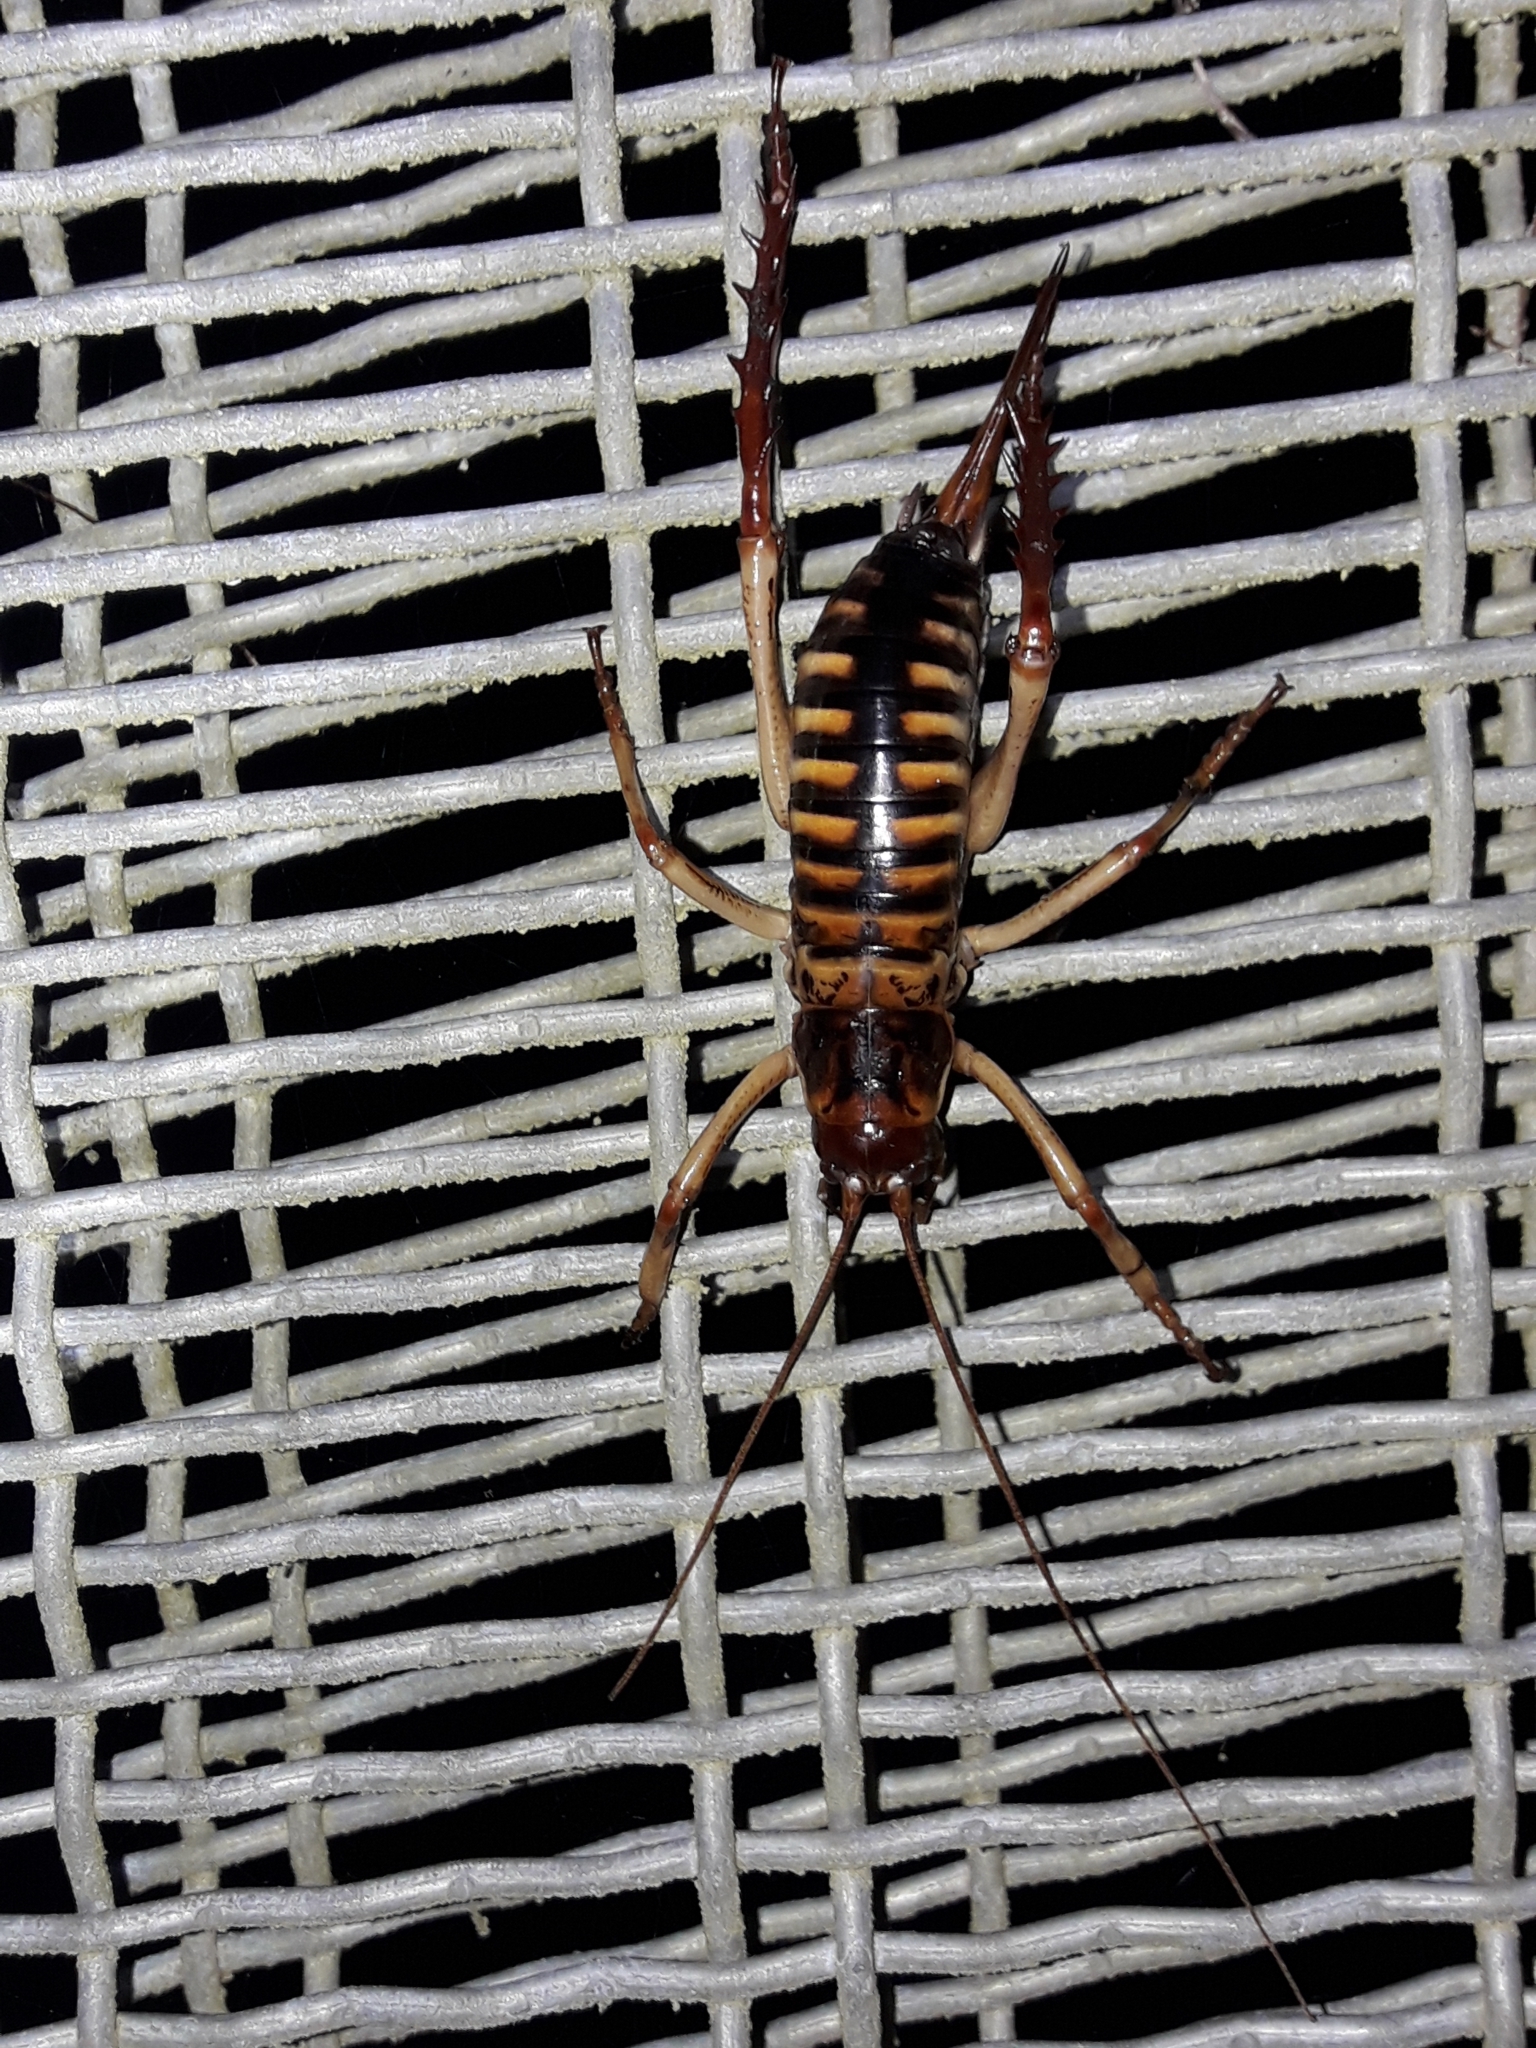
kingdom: Animalia
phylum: Arthropoda
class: Insecta
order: Orthoptera
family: Anostostomatidae
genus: Hemideina
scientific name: Hemideina crassidens
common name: Wellington tree weta
